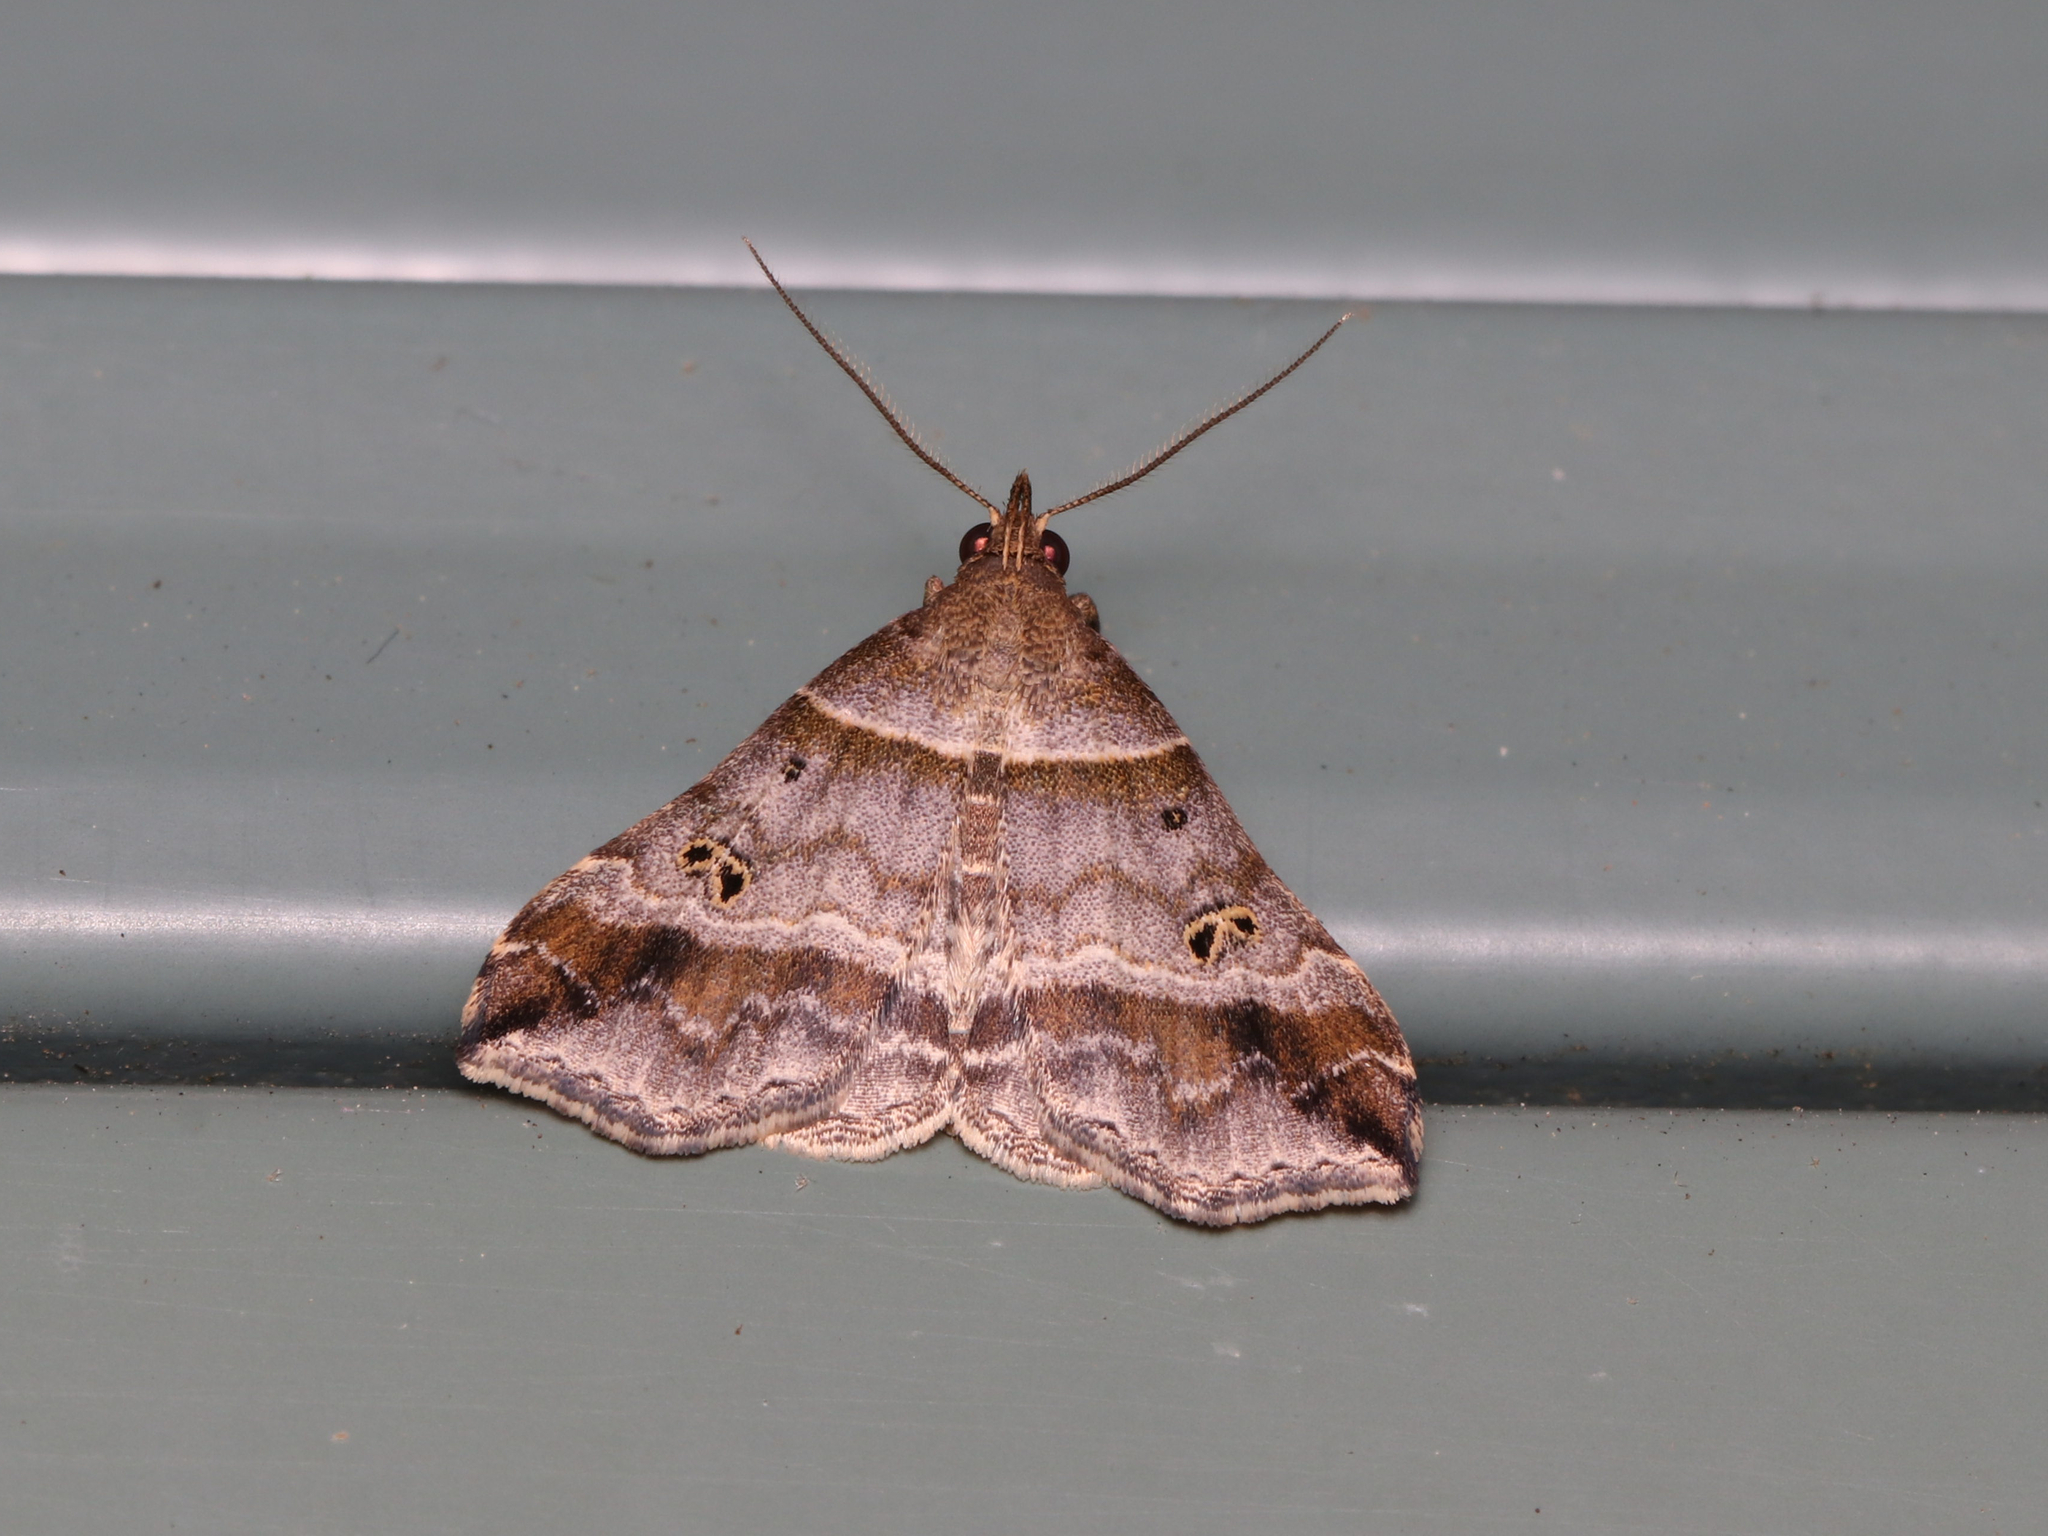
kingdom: Animalia
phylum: Arthropoda
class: Insecta
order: Lepidoptera
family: Erebidae
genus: Phaeolita
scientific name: Phaeolita pyramusalis
